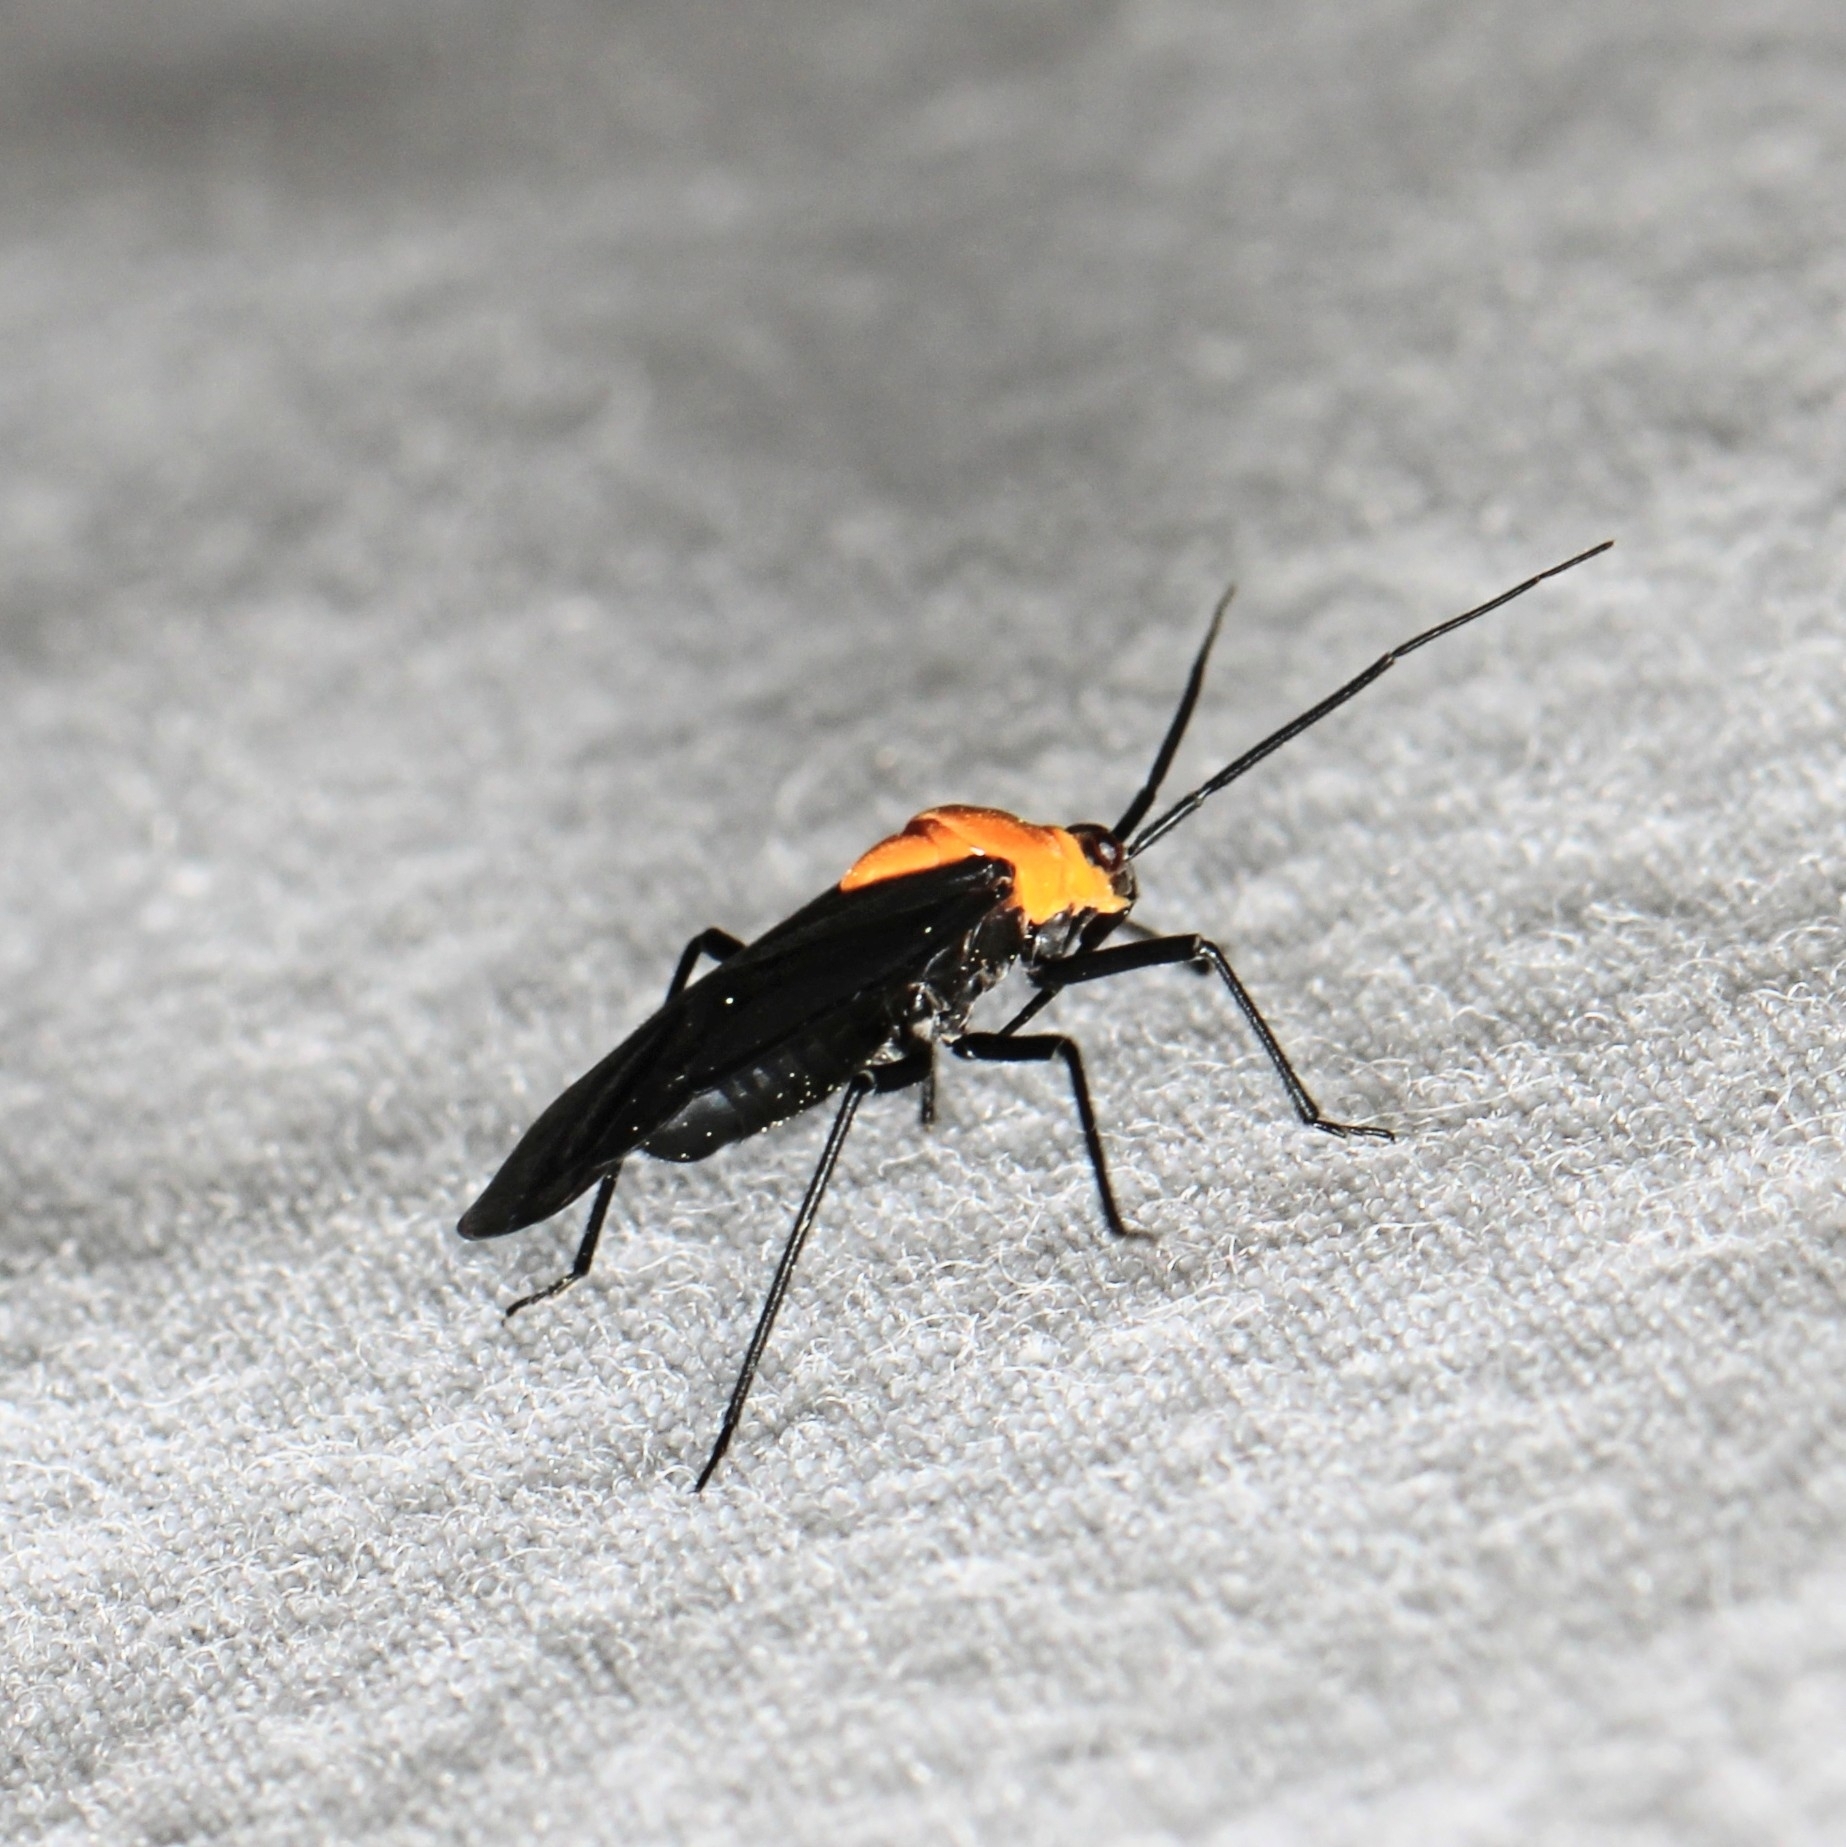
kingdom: Animalia
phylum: Arthropoda
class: Insecta
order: Hemiptera
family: Miridae
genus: Prepops
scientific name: Prepops insitivus
